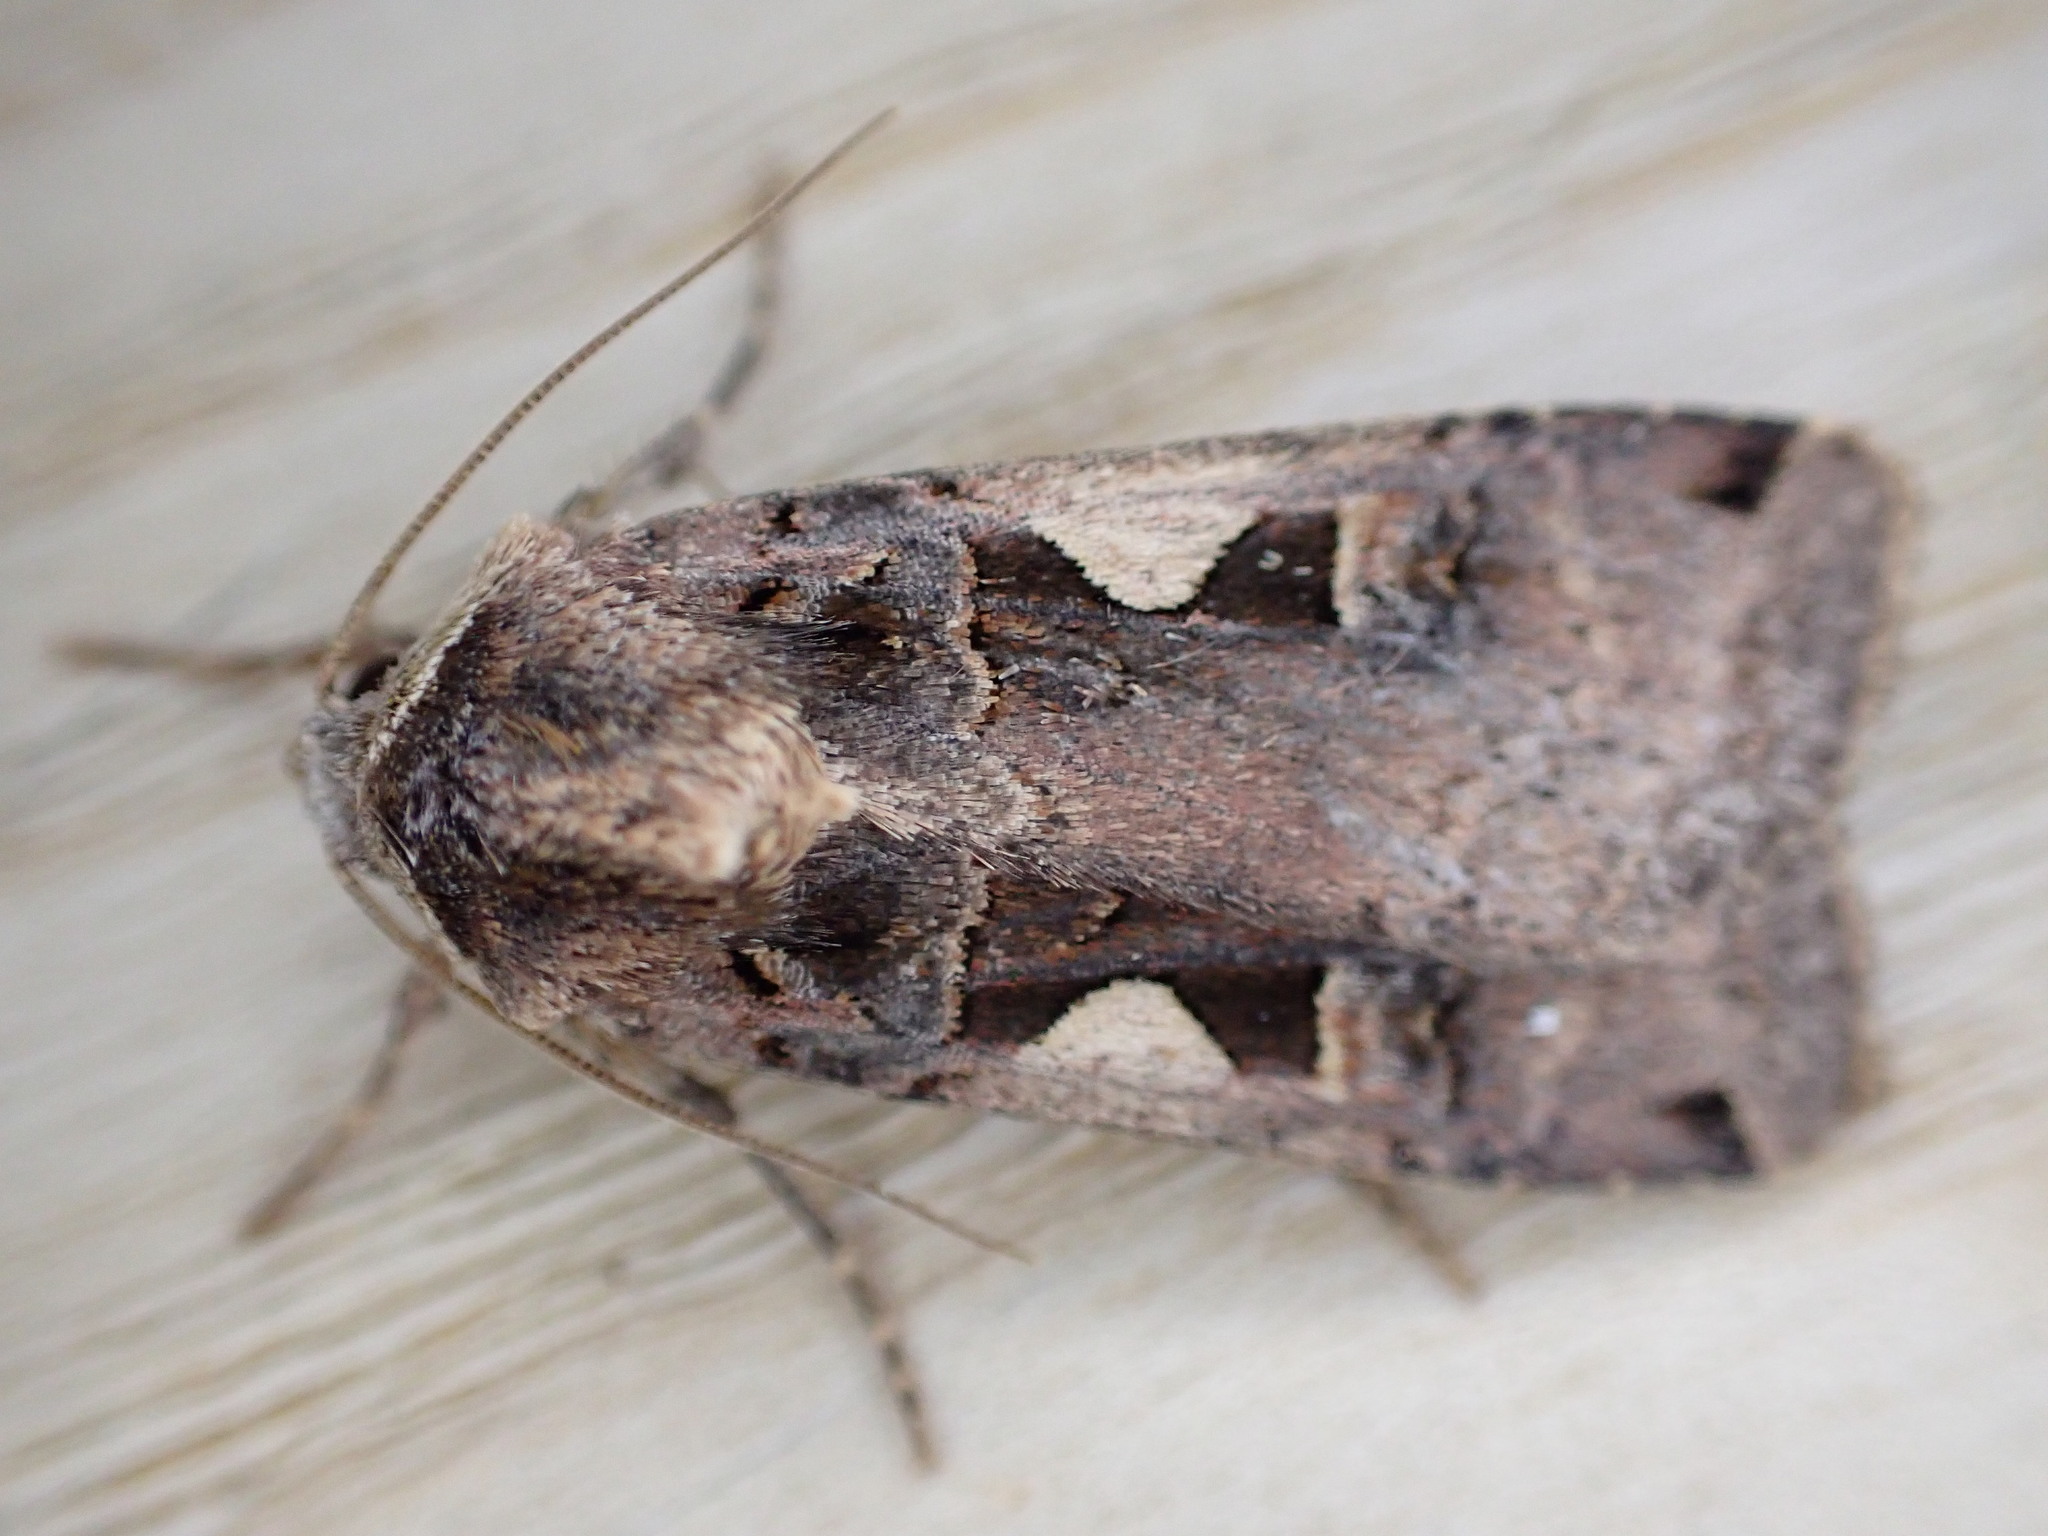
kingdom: Animalia
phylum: Arthropoda
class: Insecta
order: Lepidoptera
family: Noctuidae
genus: Xestia
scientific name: Xestia c-nigrum
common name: Setaceous hebrew character
